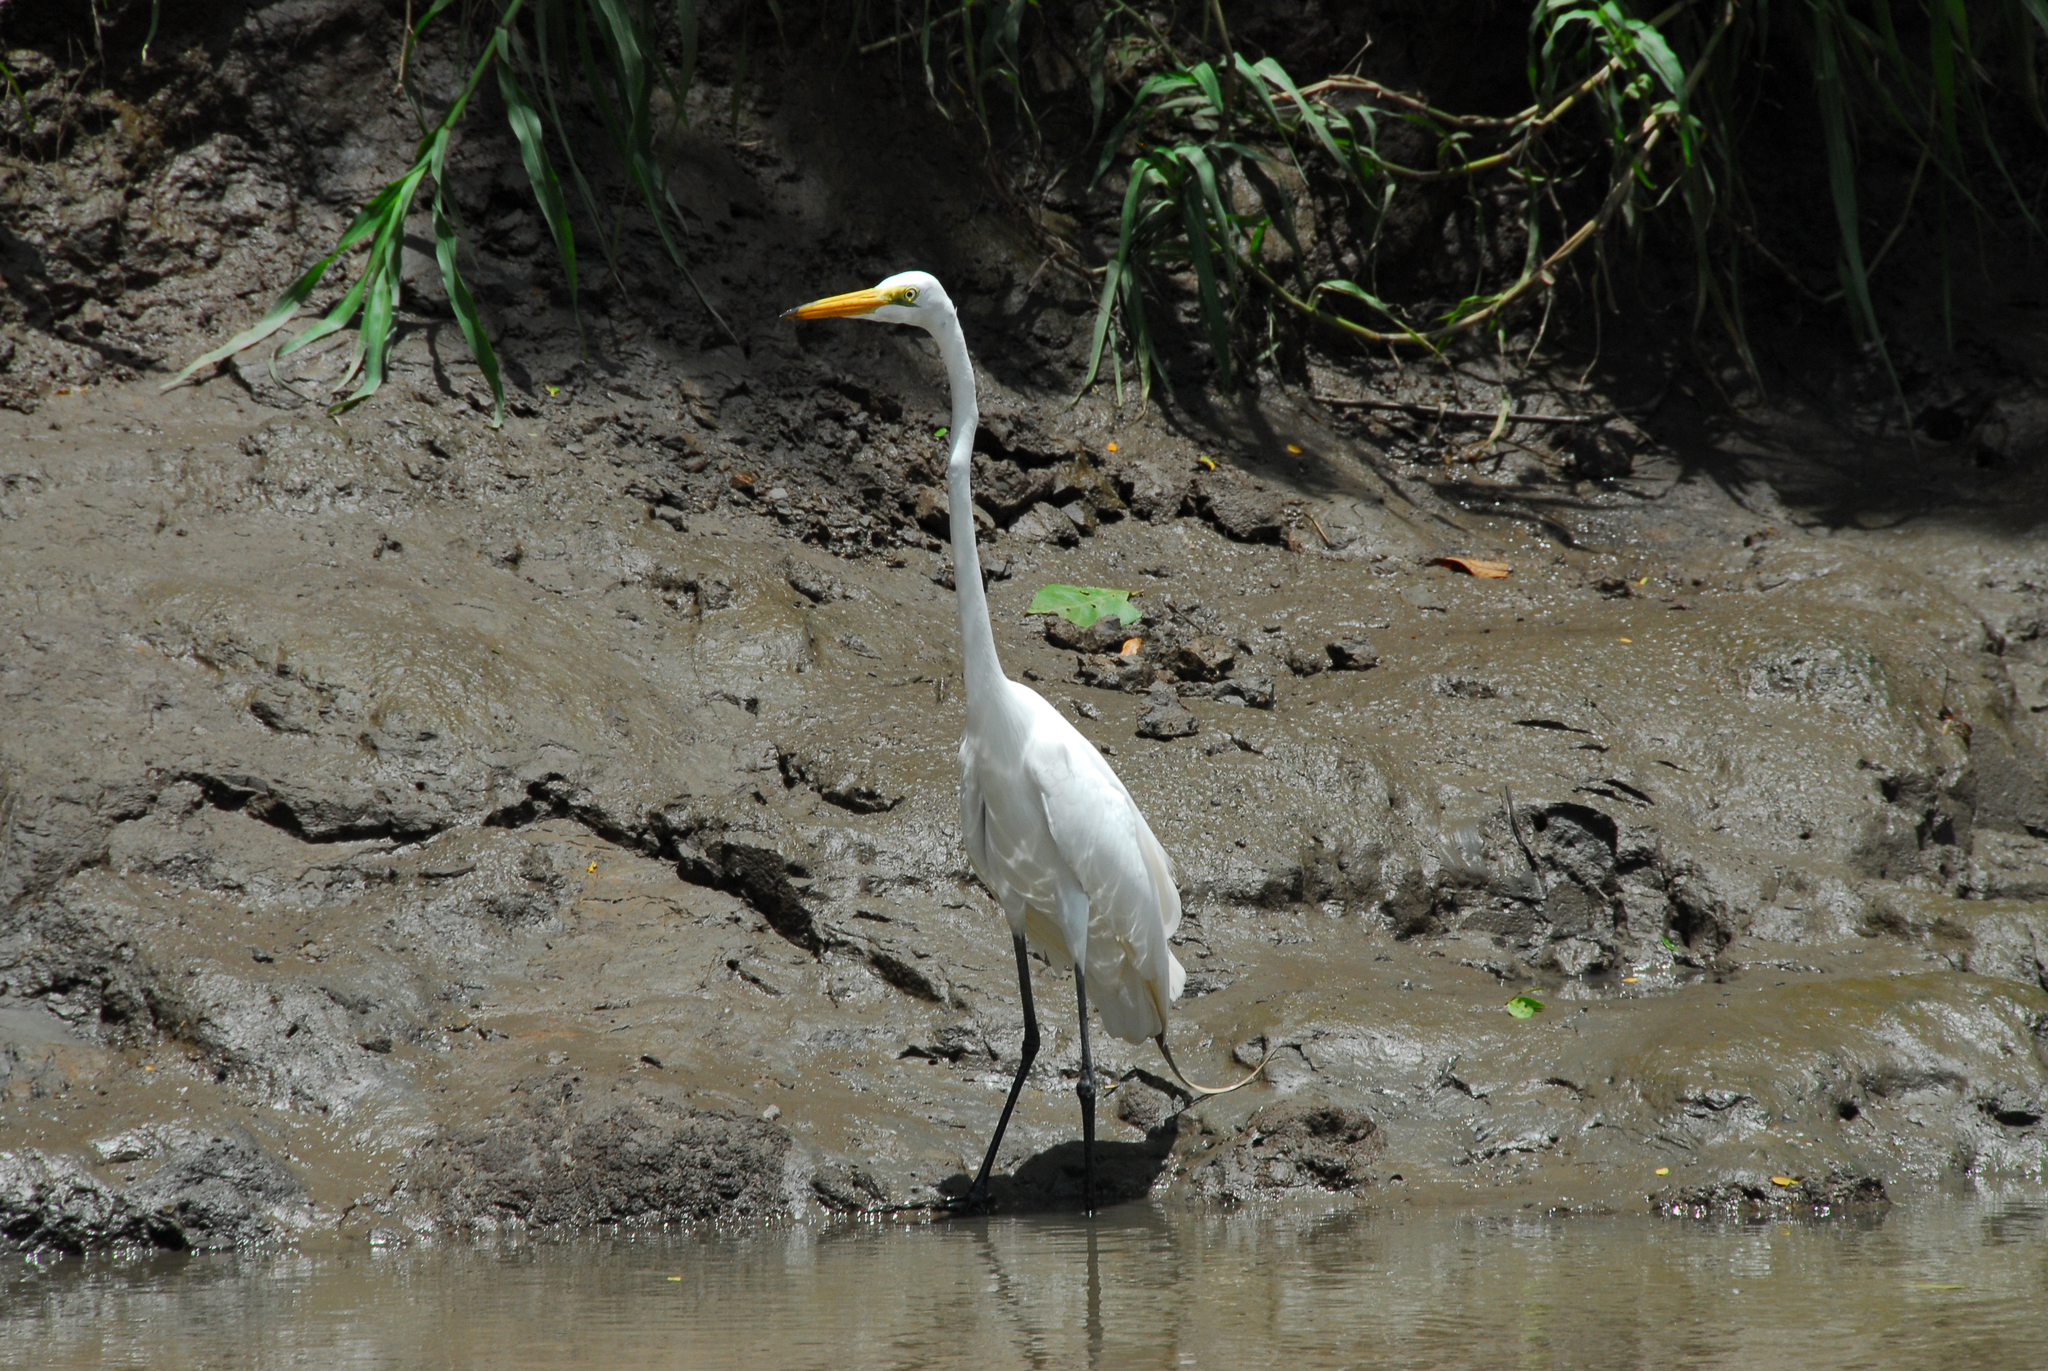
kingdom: Animalia
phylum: Chordata
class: Aves
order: Pelecaniformes
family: Ardeidae
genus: Ardea
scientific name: Ardea alba
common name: Great egret
